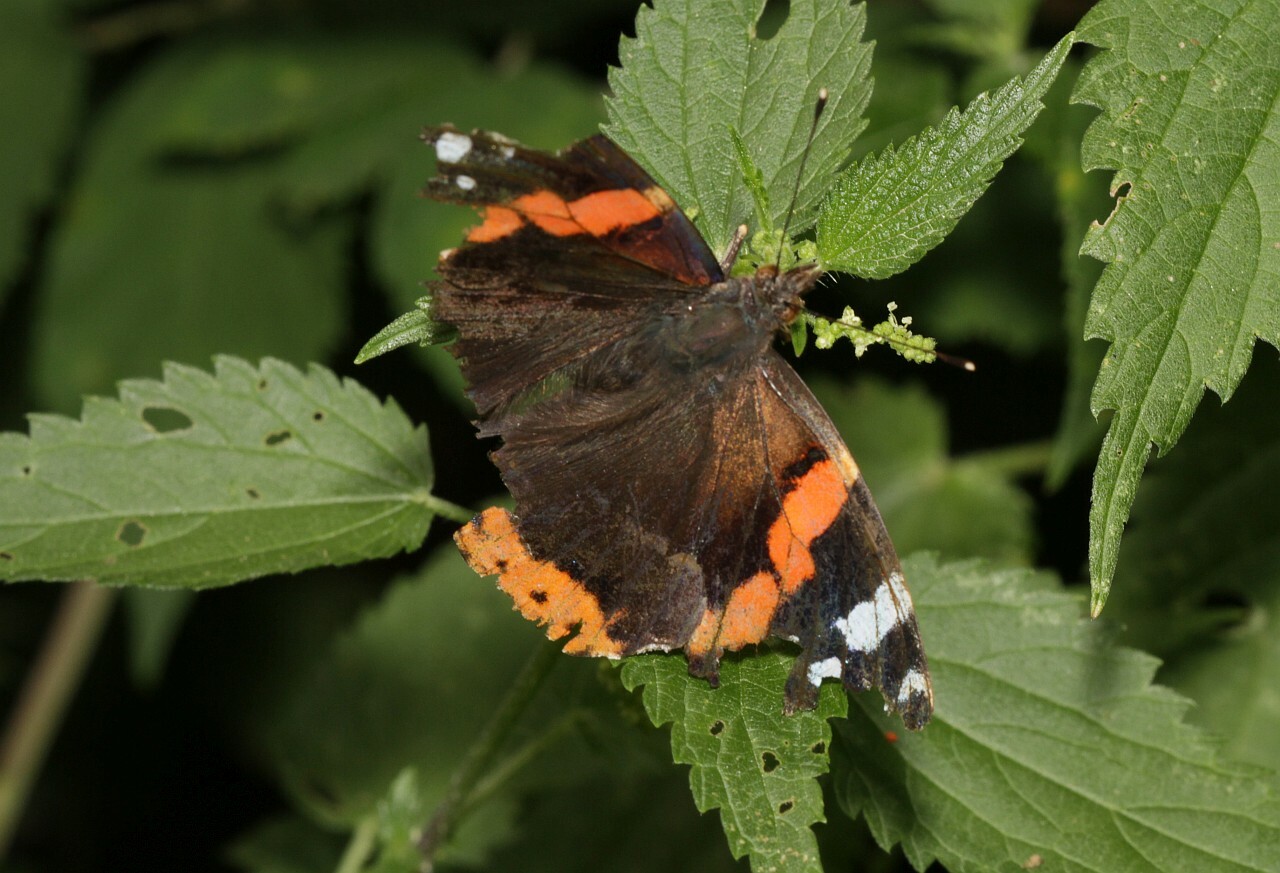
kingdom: Animalia
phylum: Arthropoda
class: Insecta
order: Lepidoptera
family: Nymphalidae
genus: Vanessa
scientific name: Vanessa atalanta
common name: Red admiral
